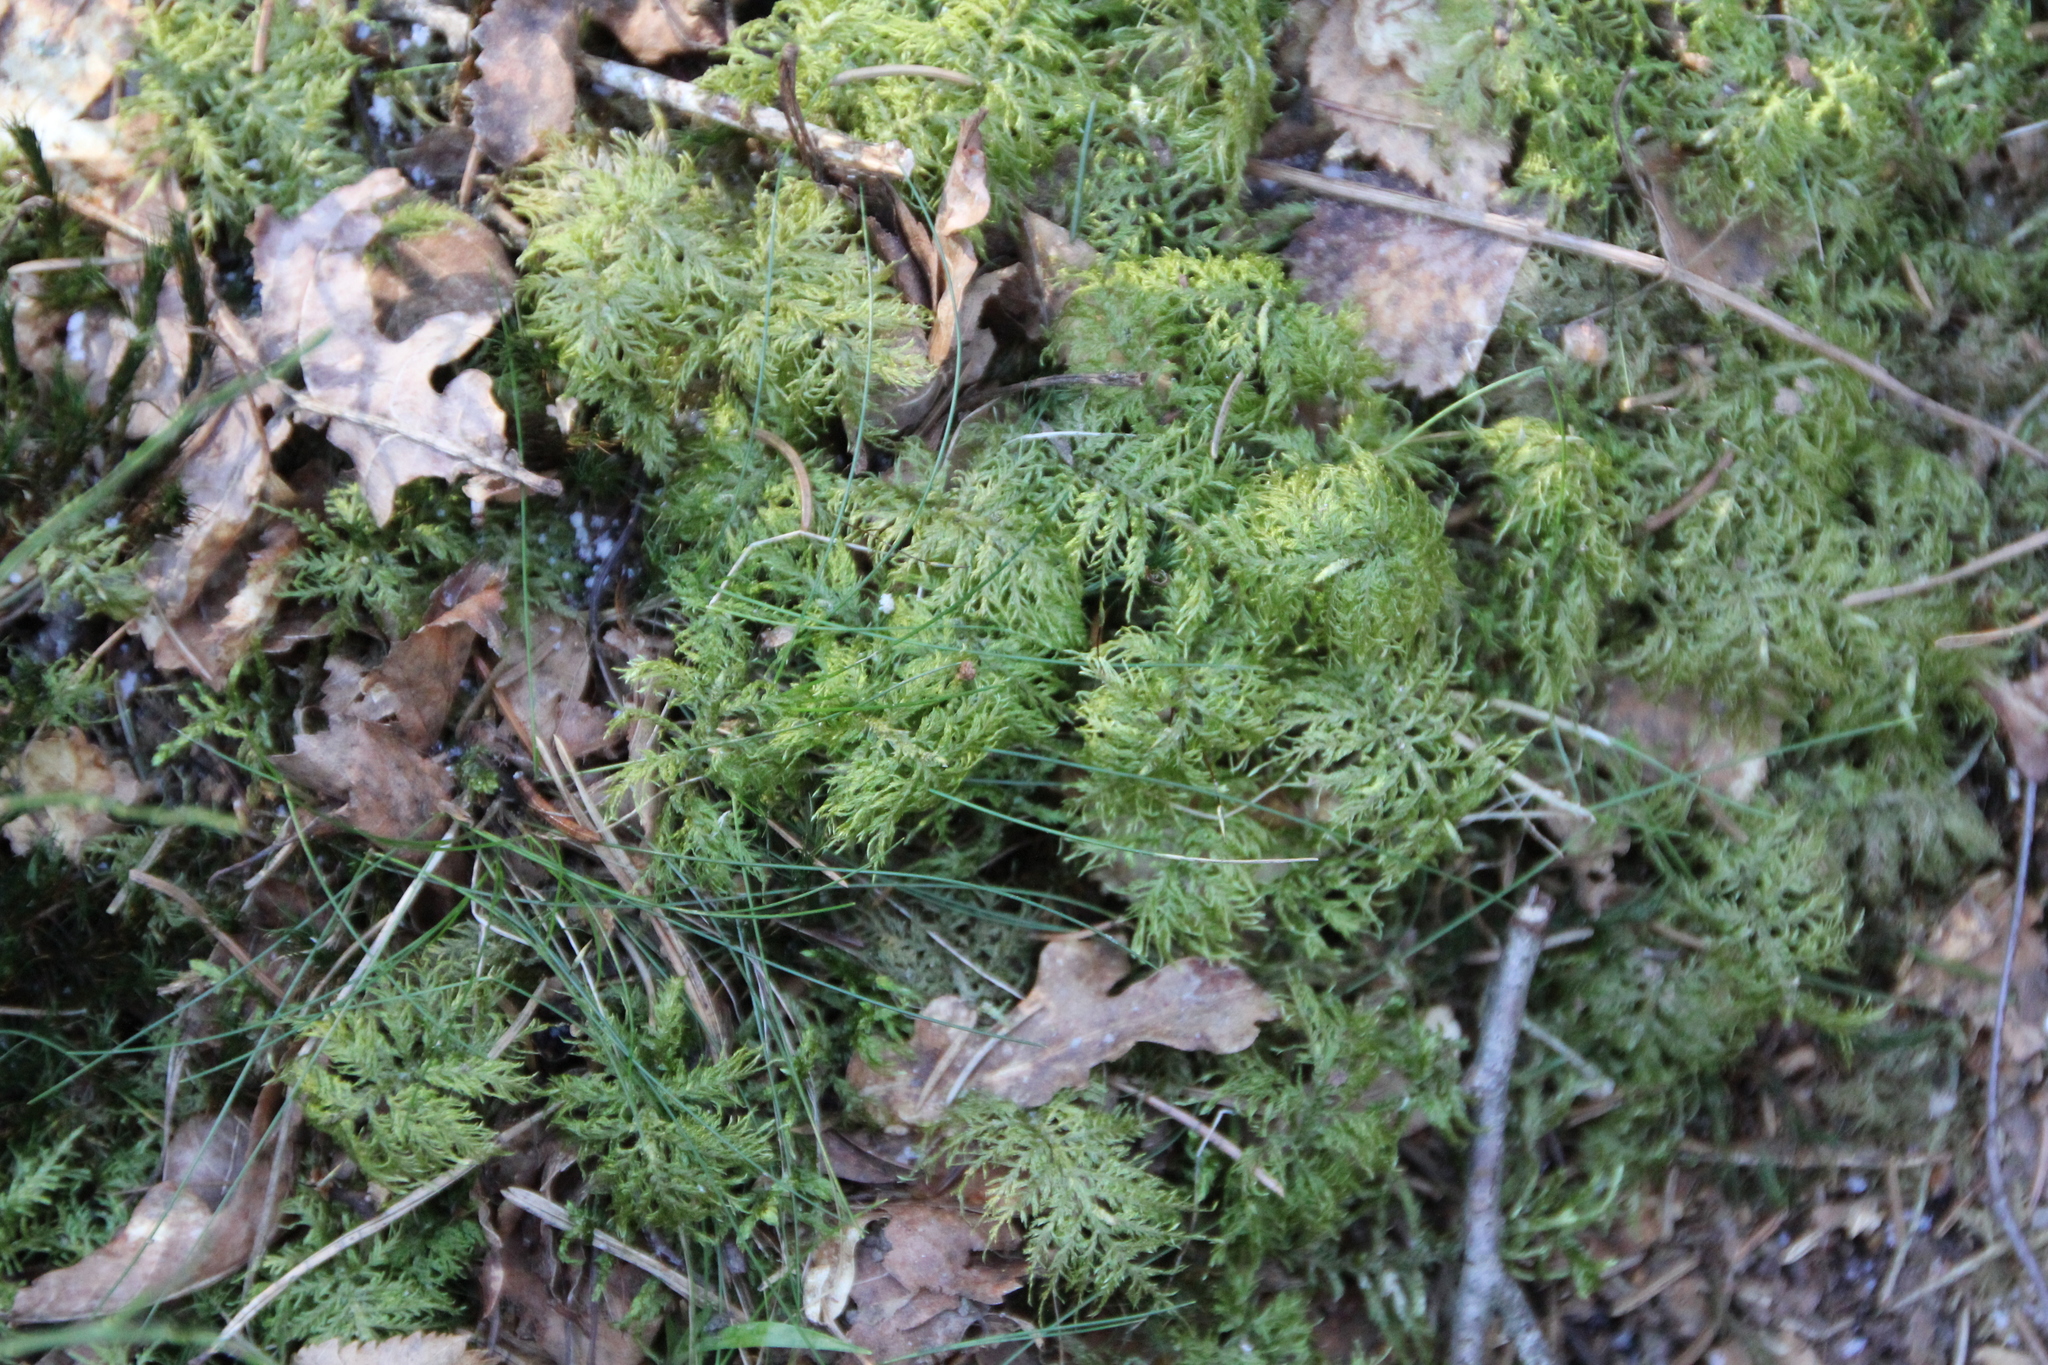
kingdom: Plantae
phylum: Bryophyta
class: Bryopsida
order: Hypnales
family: Hylocomiaceae
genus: Hylocomium
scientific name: Hylocomium splendens
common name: Stairstep moss
